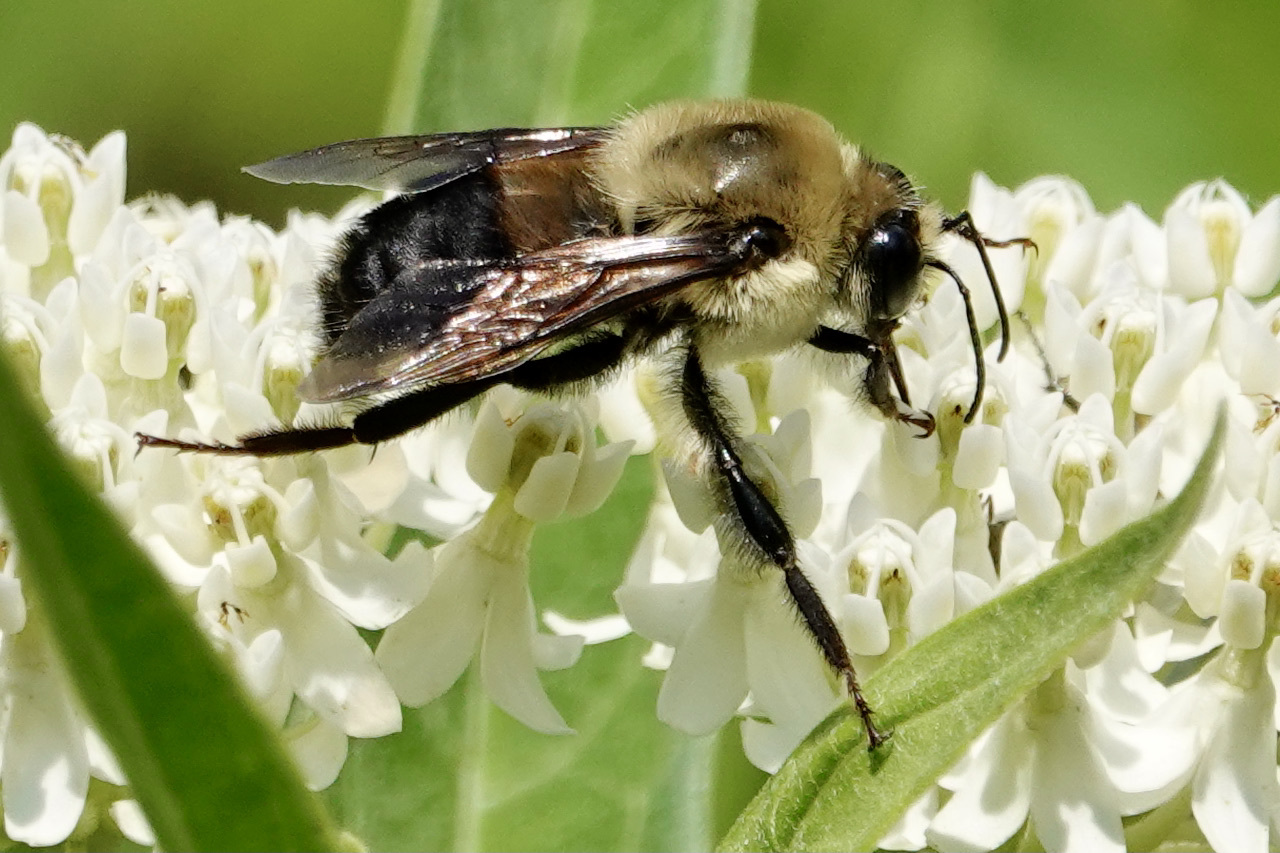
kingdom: Animalia
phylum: Arthropoda
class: Insecta
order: Hymenoptera
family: Apidae
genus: Bombus
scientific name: Bombus griseocollis
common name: Brown-belted bumble bee
